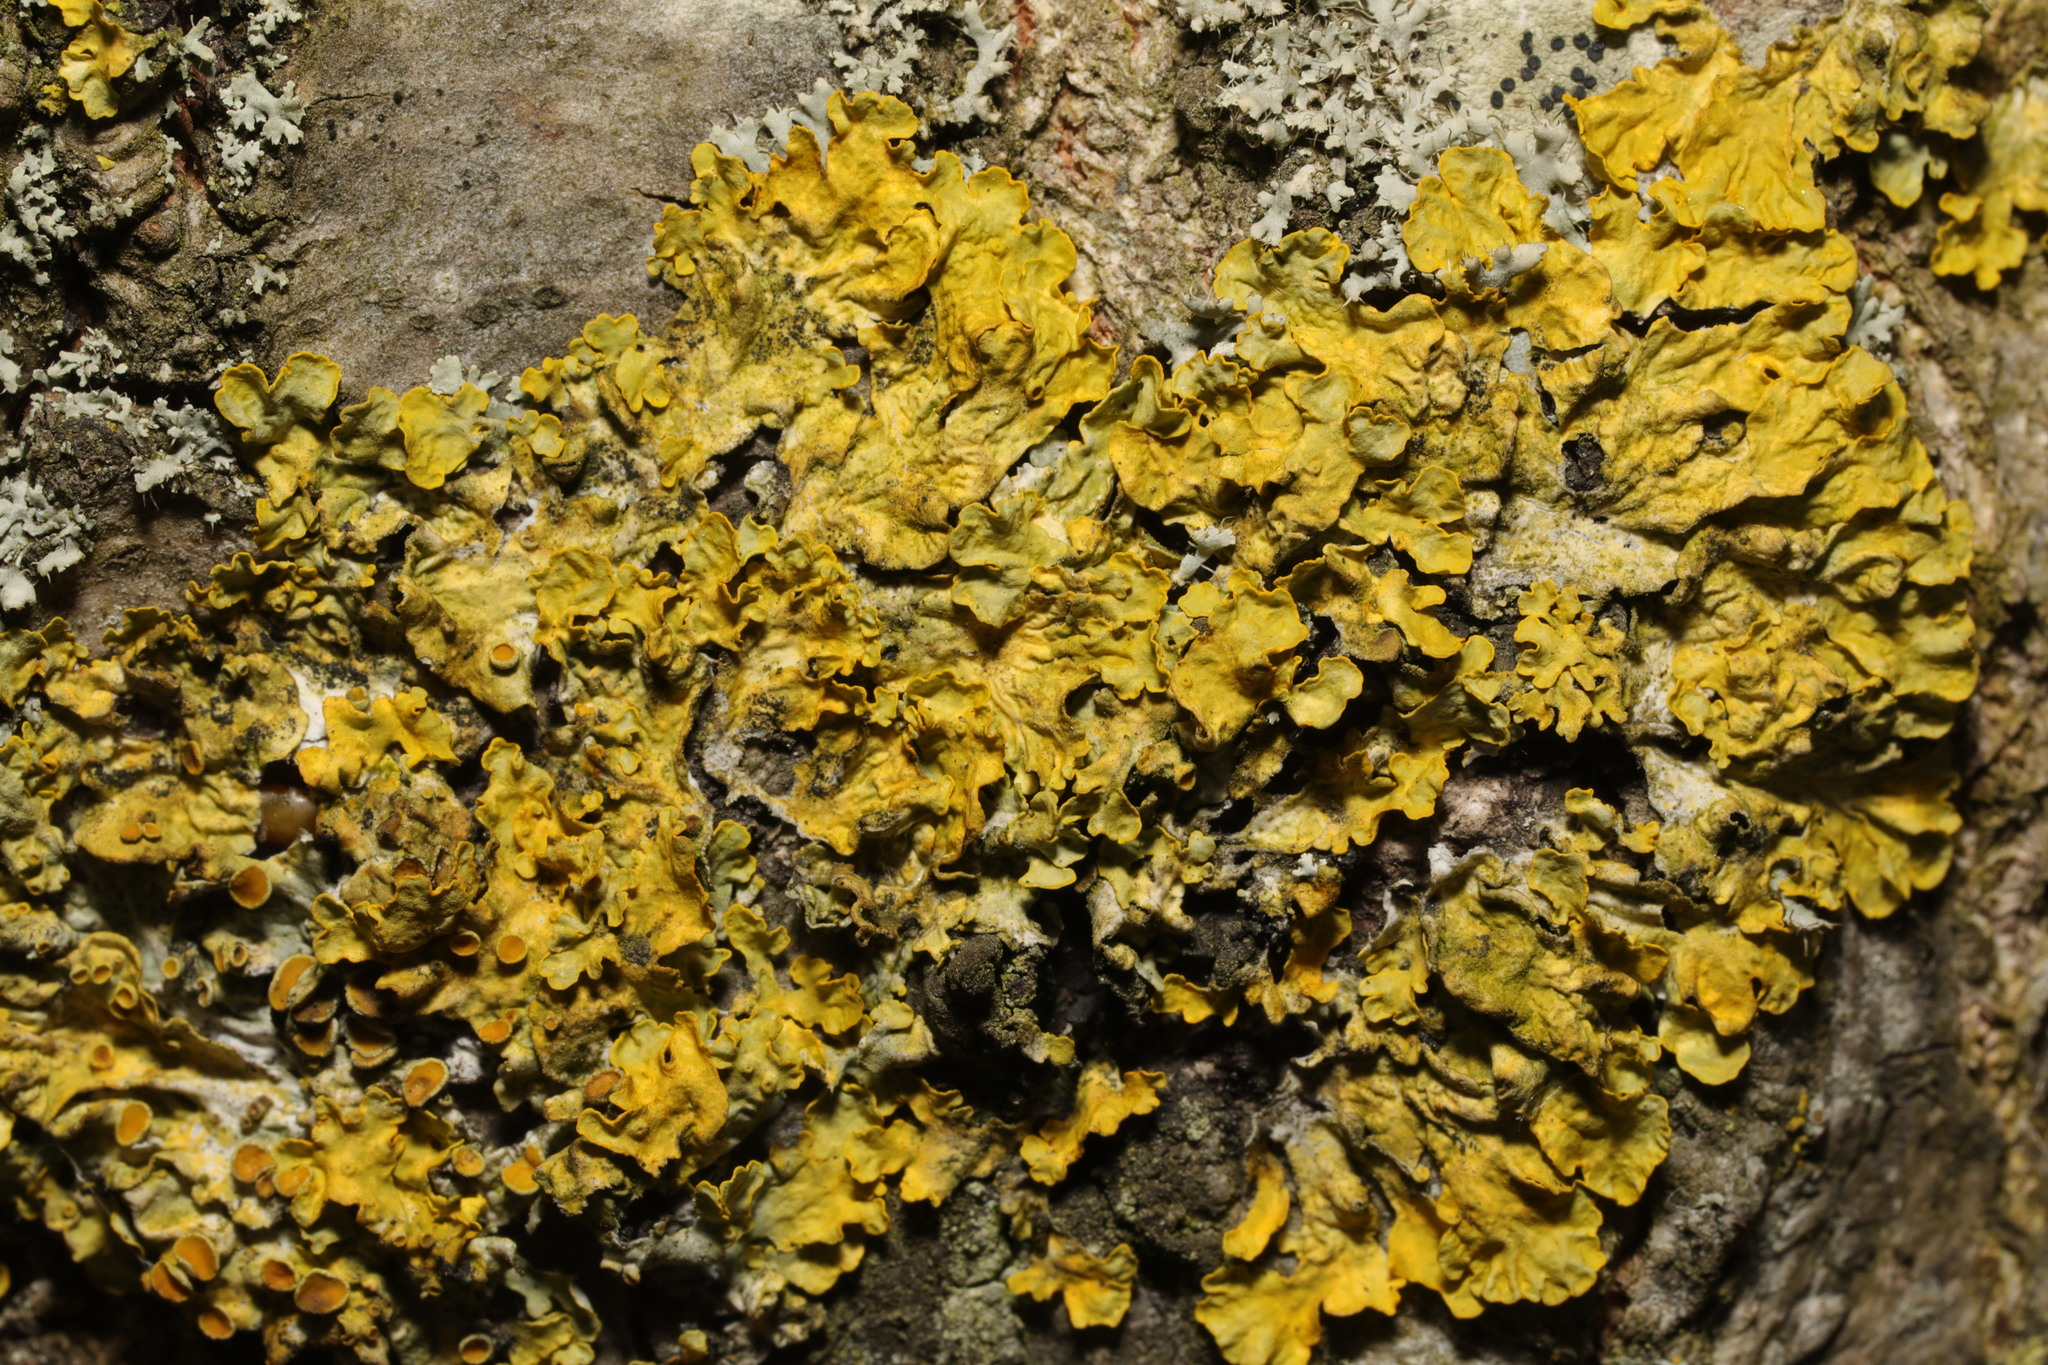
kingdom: Fungi
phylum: Ascomycota
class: Lecanoromycetes
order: Teloschistales
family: Teloschistaceae
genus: Xanthoria
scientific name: Xanthoria parietina
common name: Common orange lichen
